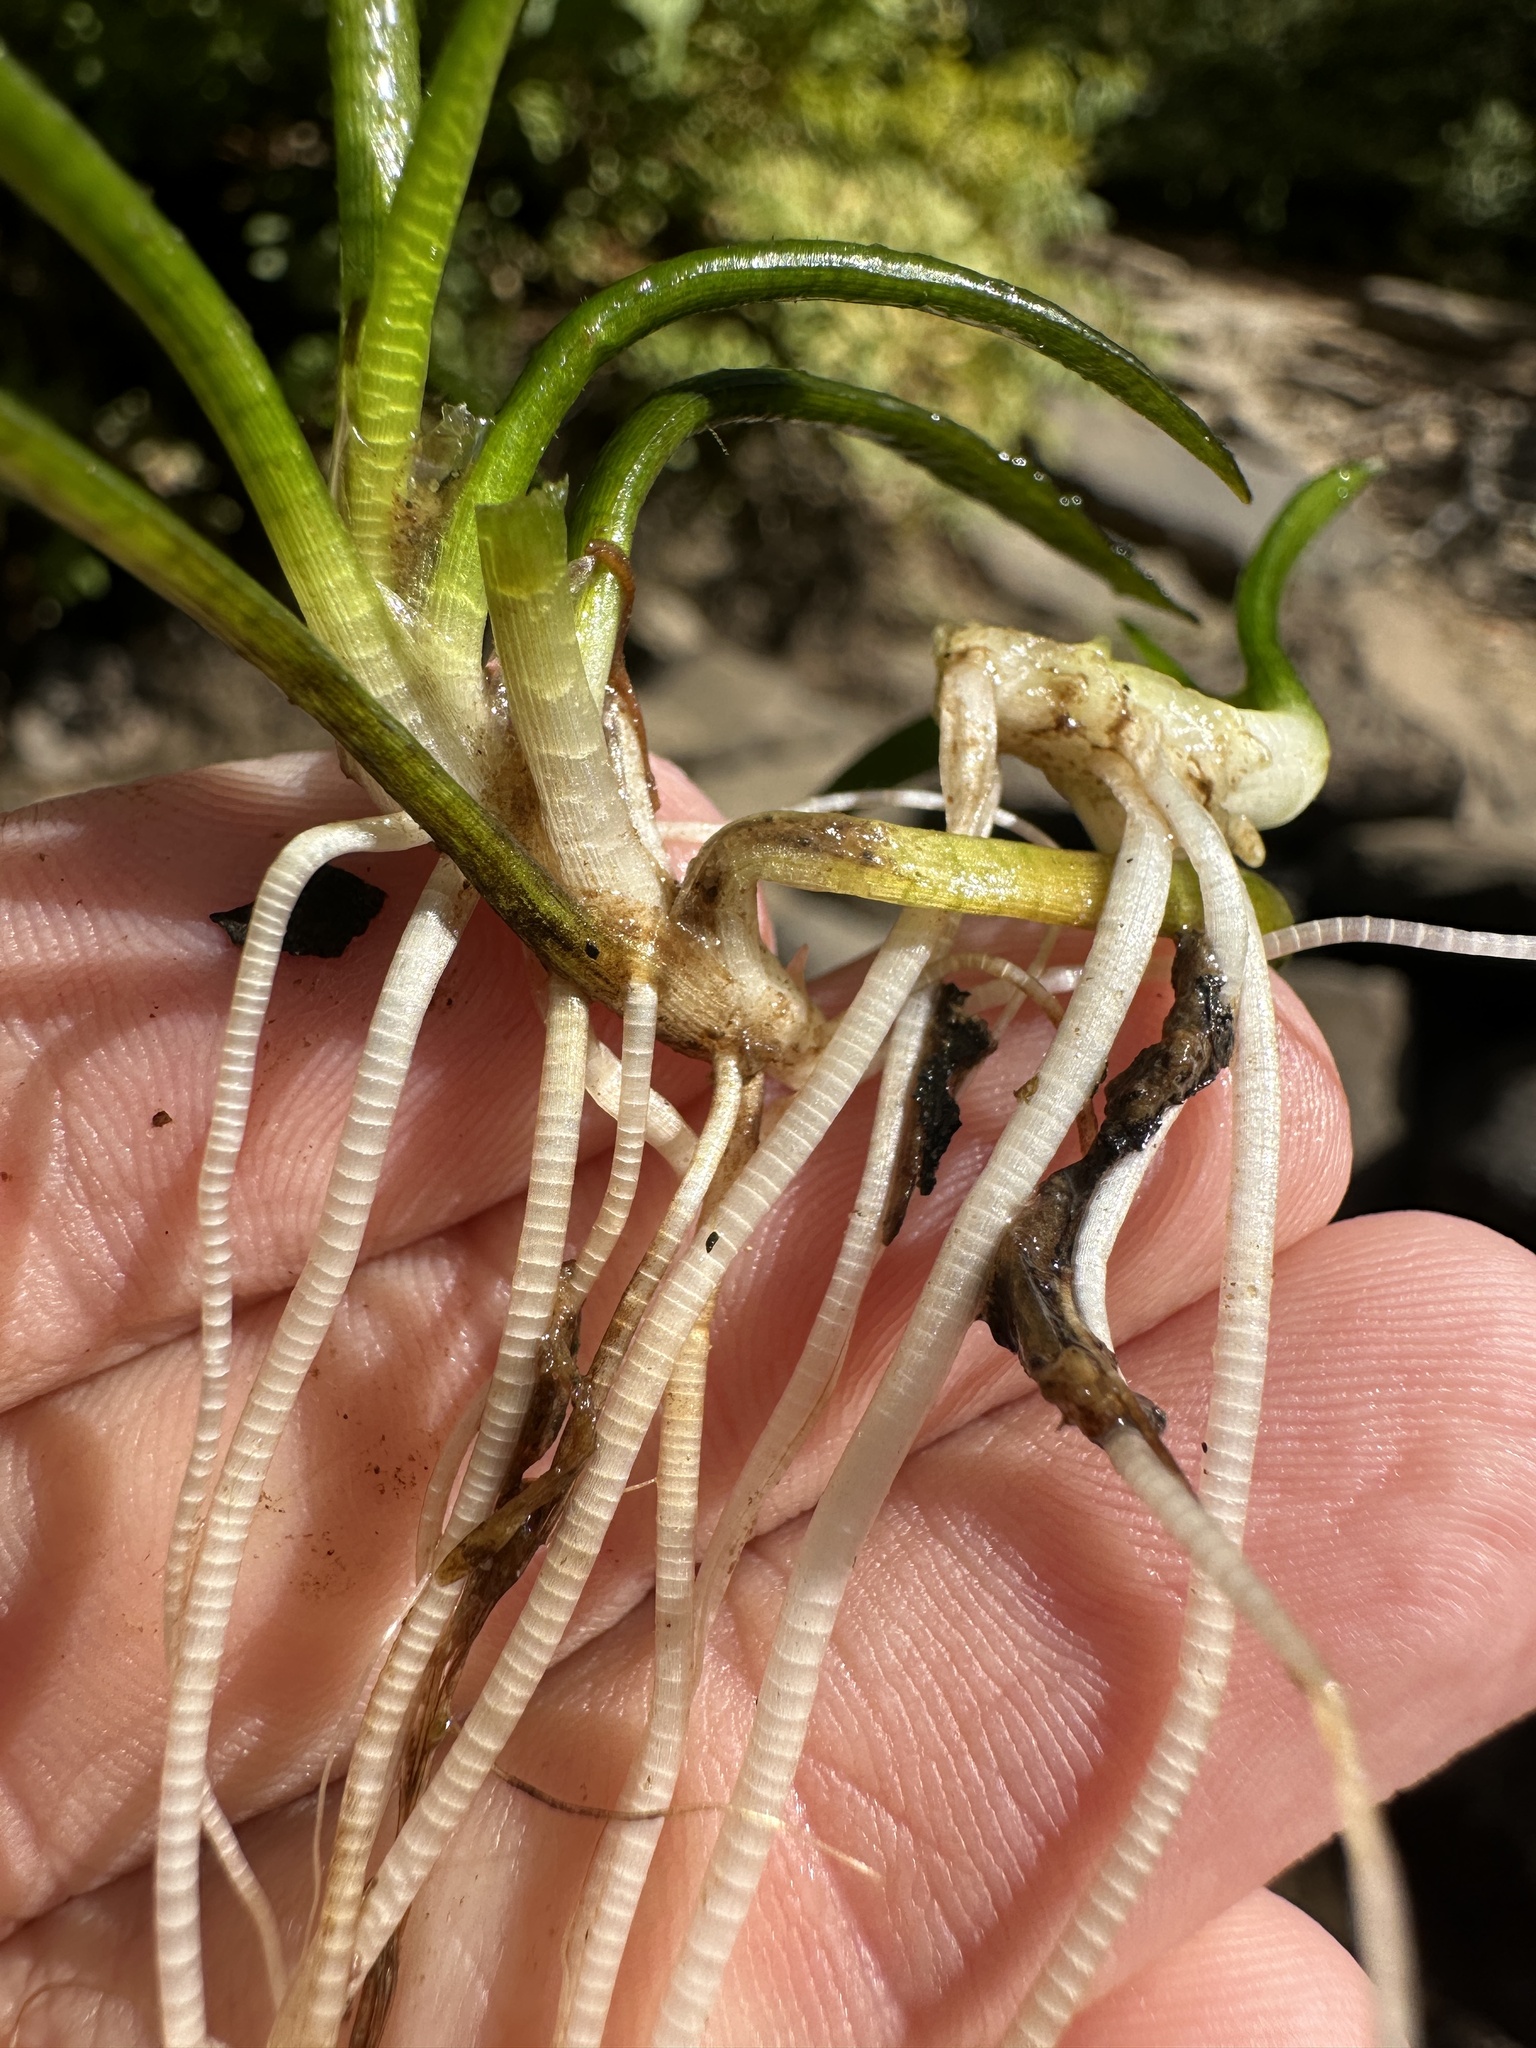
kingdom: Plantae
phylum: Tracheophyta
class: Liliopsida
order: Alismatales
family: Alismataceae
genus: Sagittaria
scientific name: Sagittaria secundifolia
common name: Kral's-water-plantain
